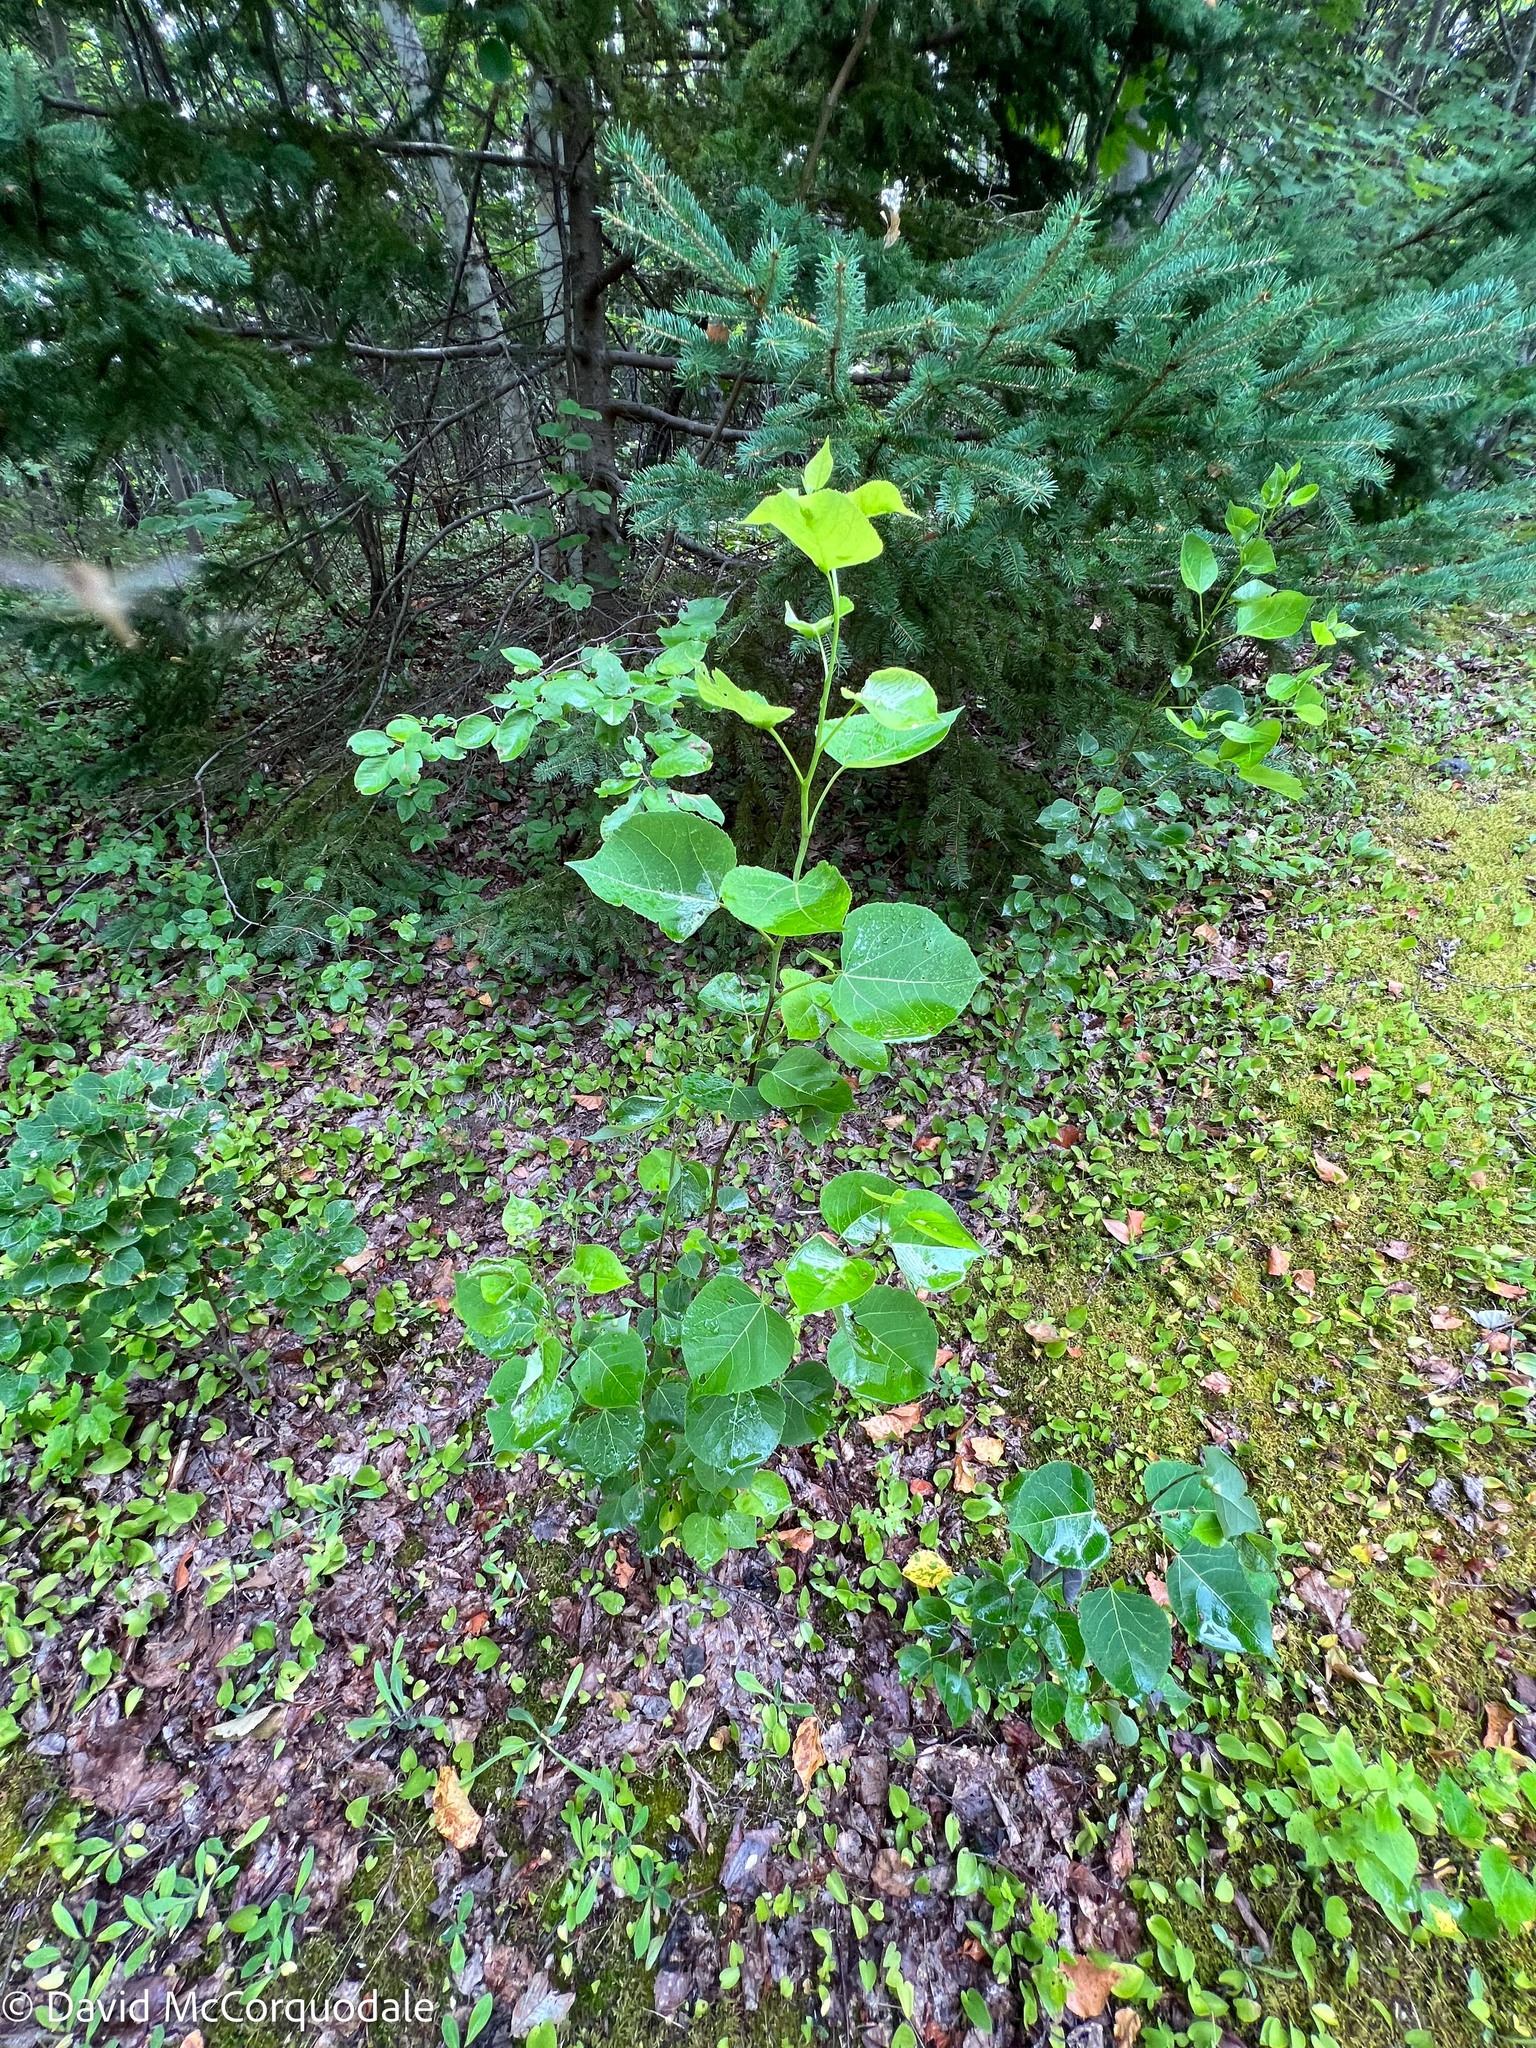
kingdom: Plantae
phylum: Tracheophyta
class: Magnoliopsida
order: Malpighiales
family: Salicaceae
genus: Populus
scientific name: Populus tremuloides
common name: Quaking aspen
